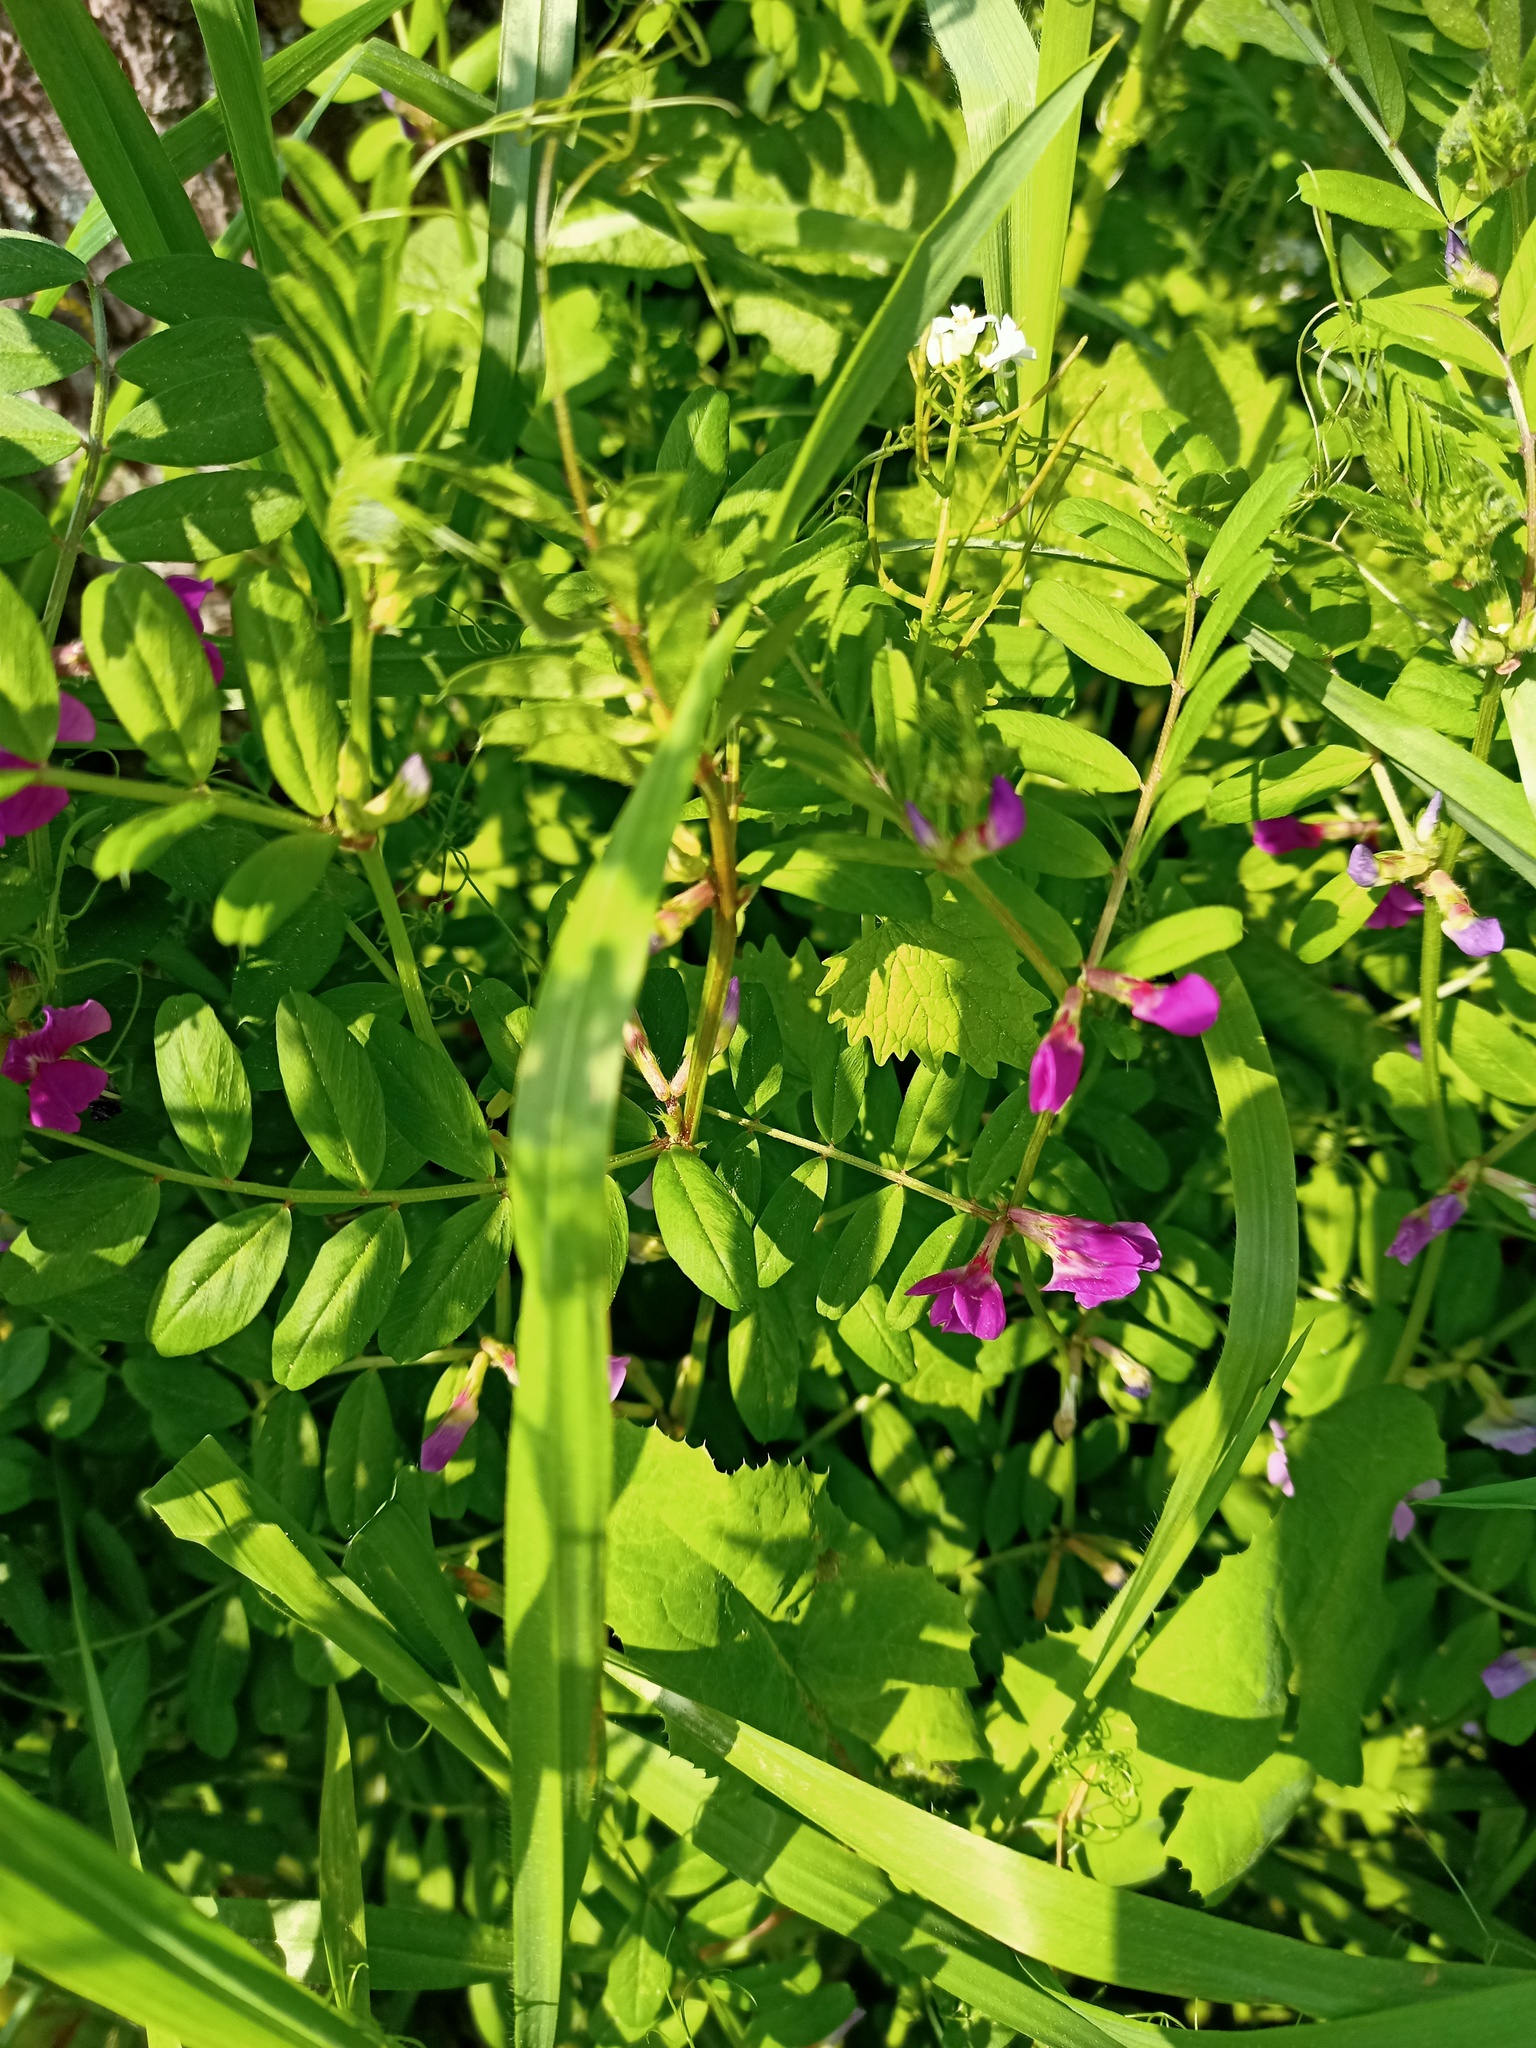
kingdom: Plantae
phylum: Tracheophyta
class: Magnoliopsida
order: Fabales
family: Fabaceae
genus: Vicia
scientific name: Vicia sativa
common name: Garden vetch
